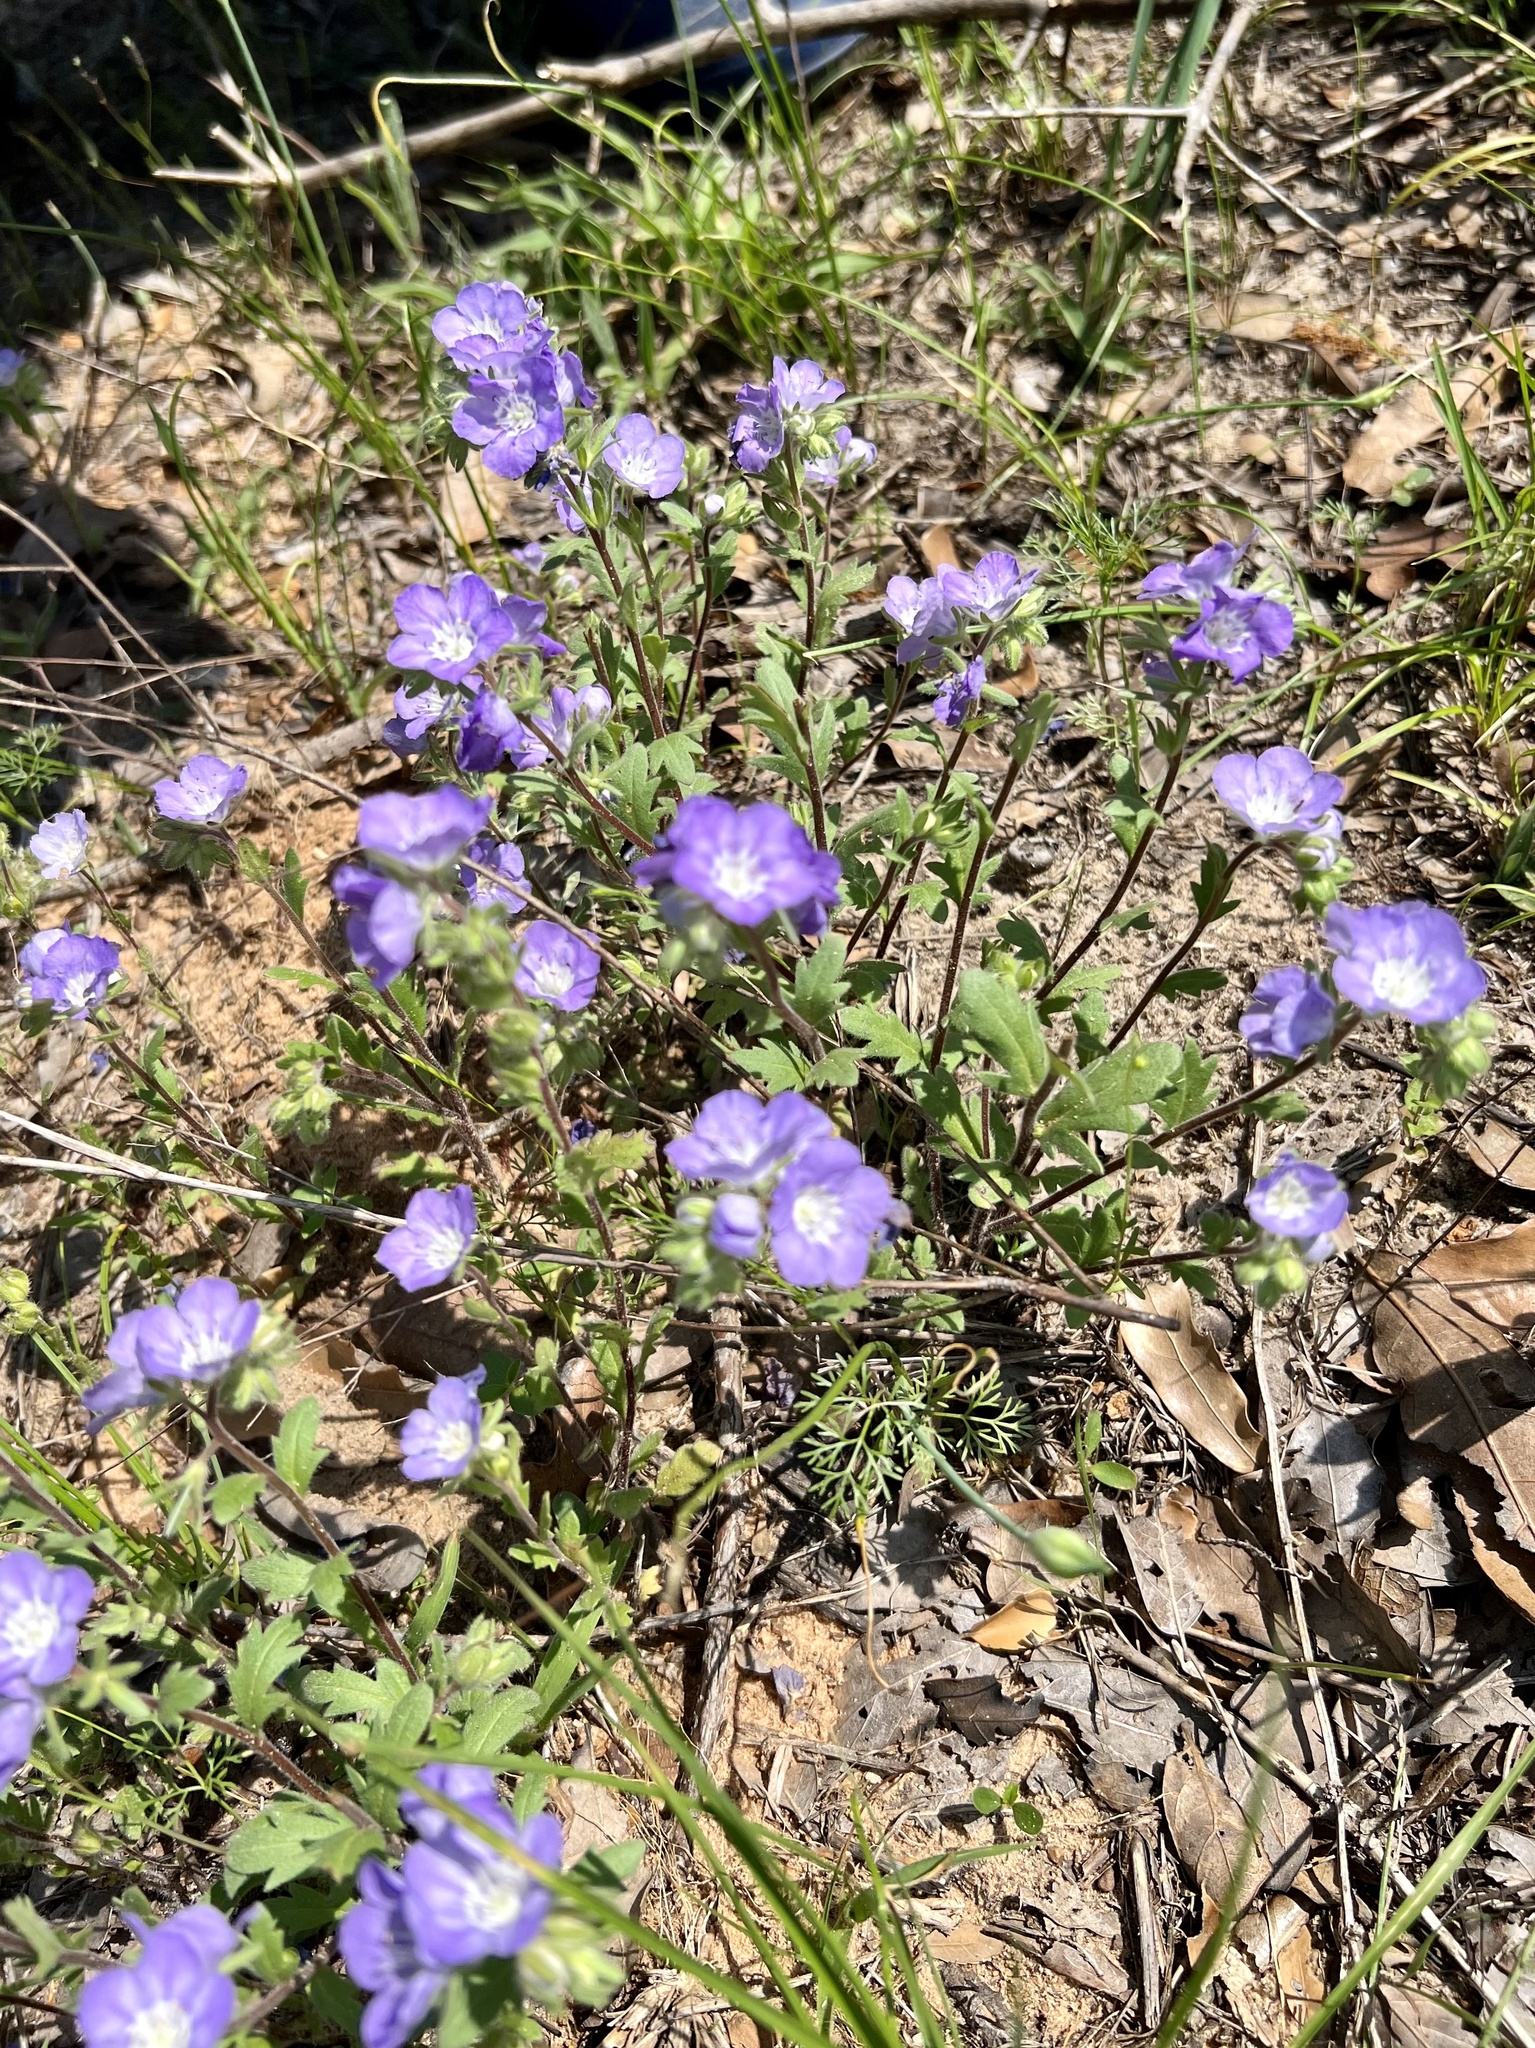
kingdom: Plantae
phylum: Tracheophyta
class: Magnoliopsida
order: Boraginales
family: Hydrophyllaceae
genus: Phacelia
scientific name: Phacelia strictiflora
